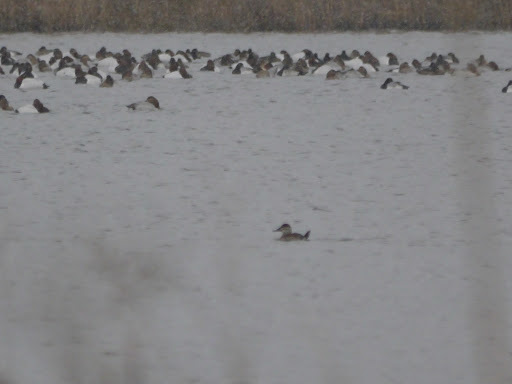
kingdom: Animalia
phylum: Chordata
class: Aves
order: Anseriformes
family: Anatidae
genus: Oxyura
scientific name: Oxyura jamaicensis
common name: Ruddy duck
